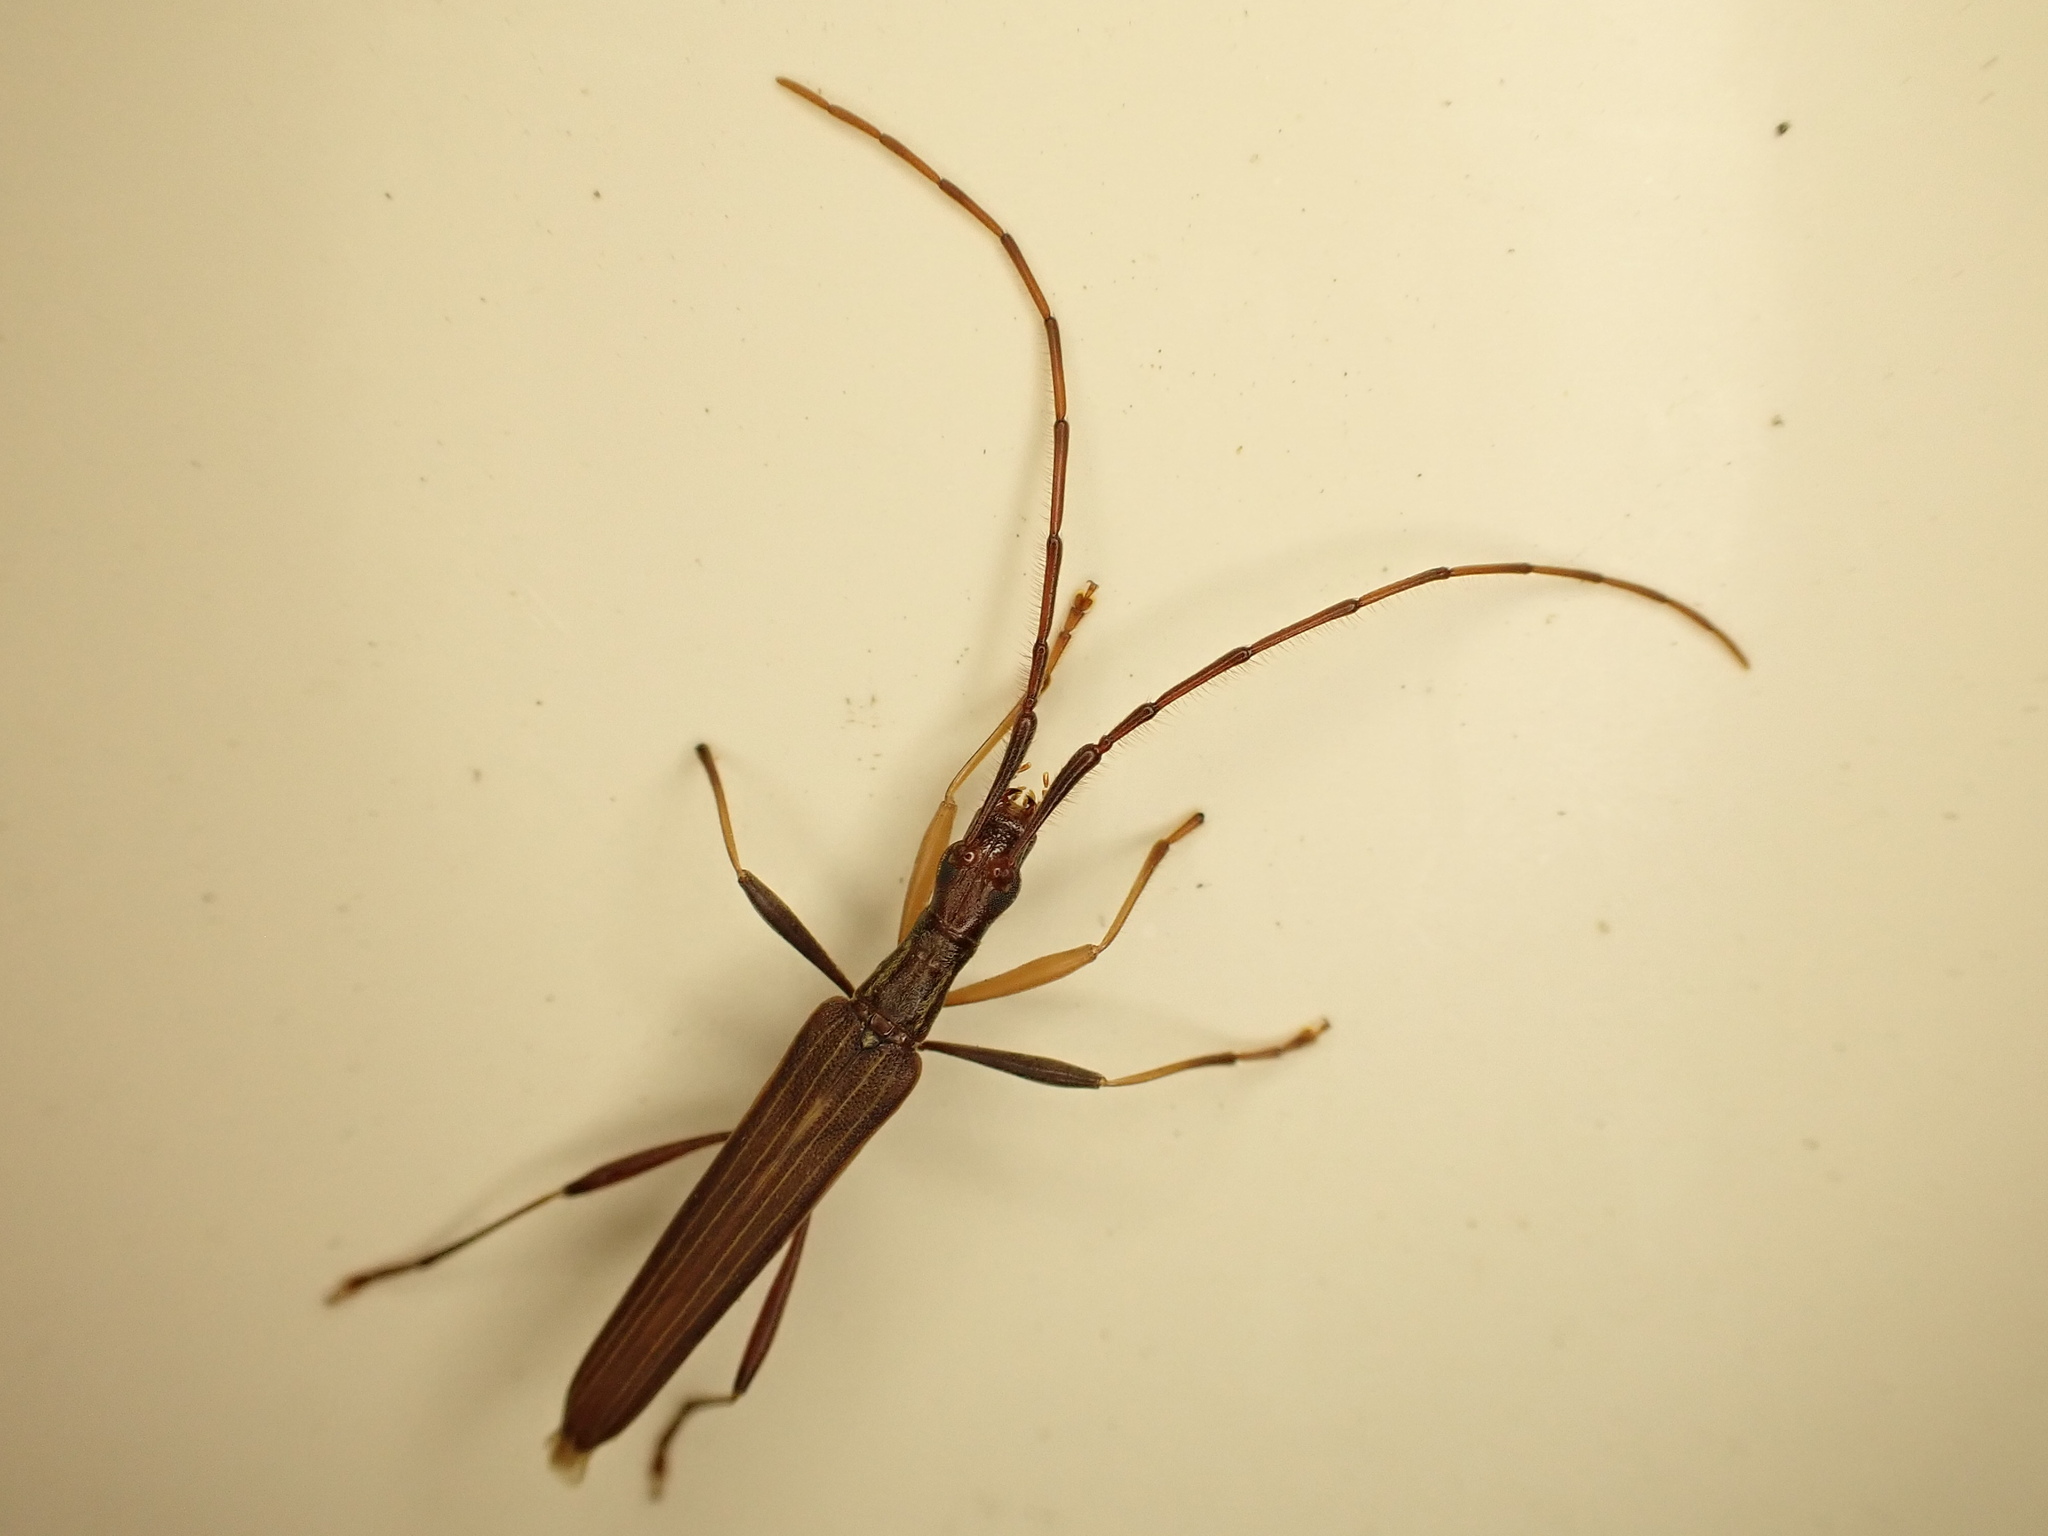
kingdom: Animalia
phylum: Arthropoda
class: Insecta
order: Coleoptera
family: Cerambycidae
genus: Stenopotes
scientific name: Stenopotes pallidus
